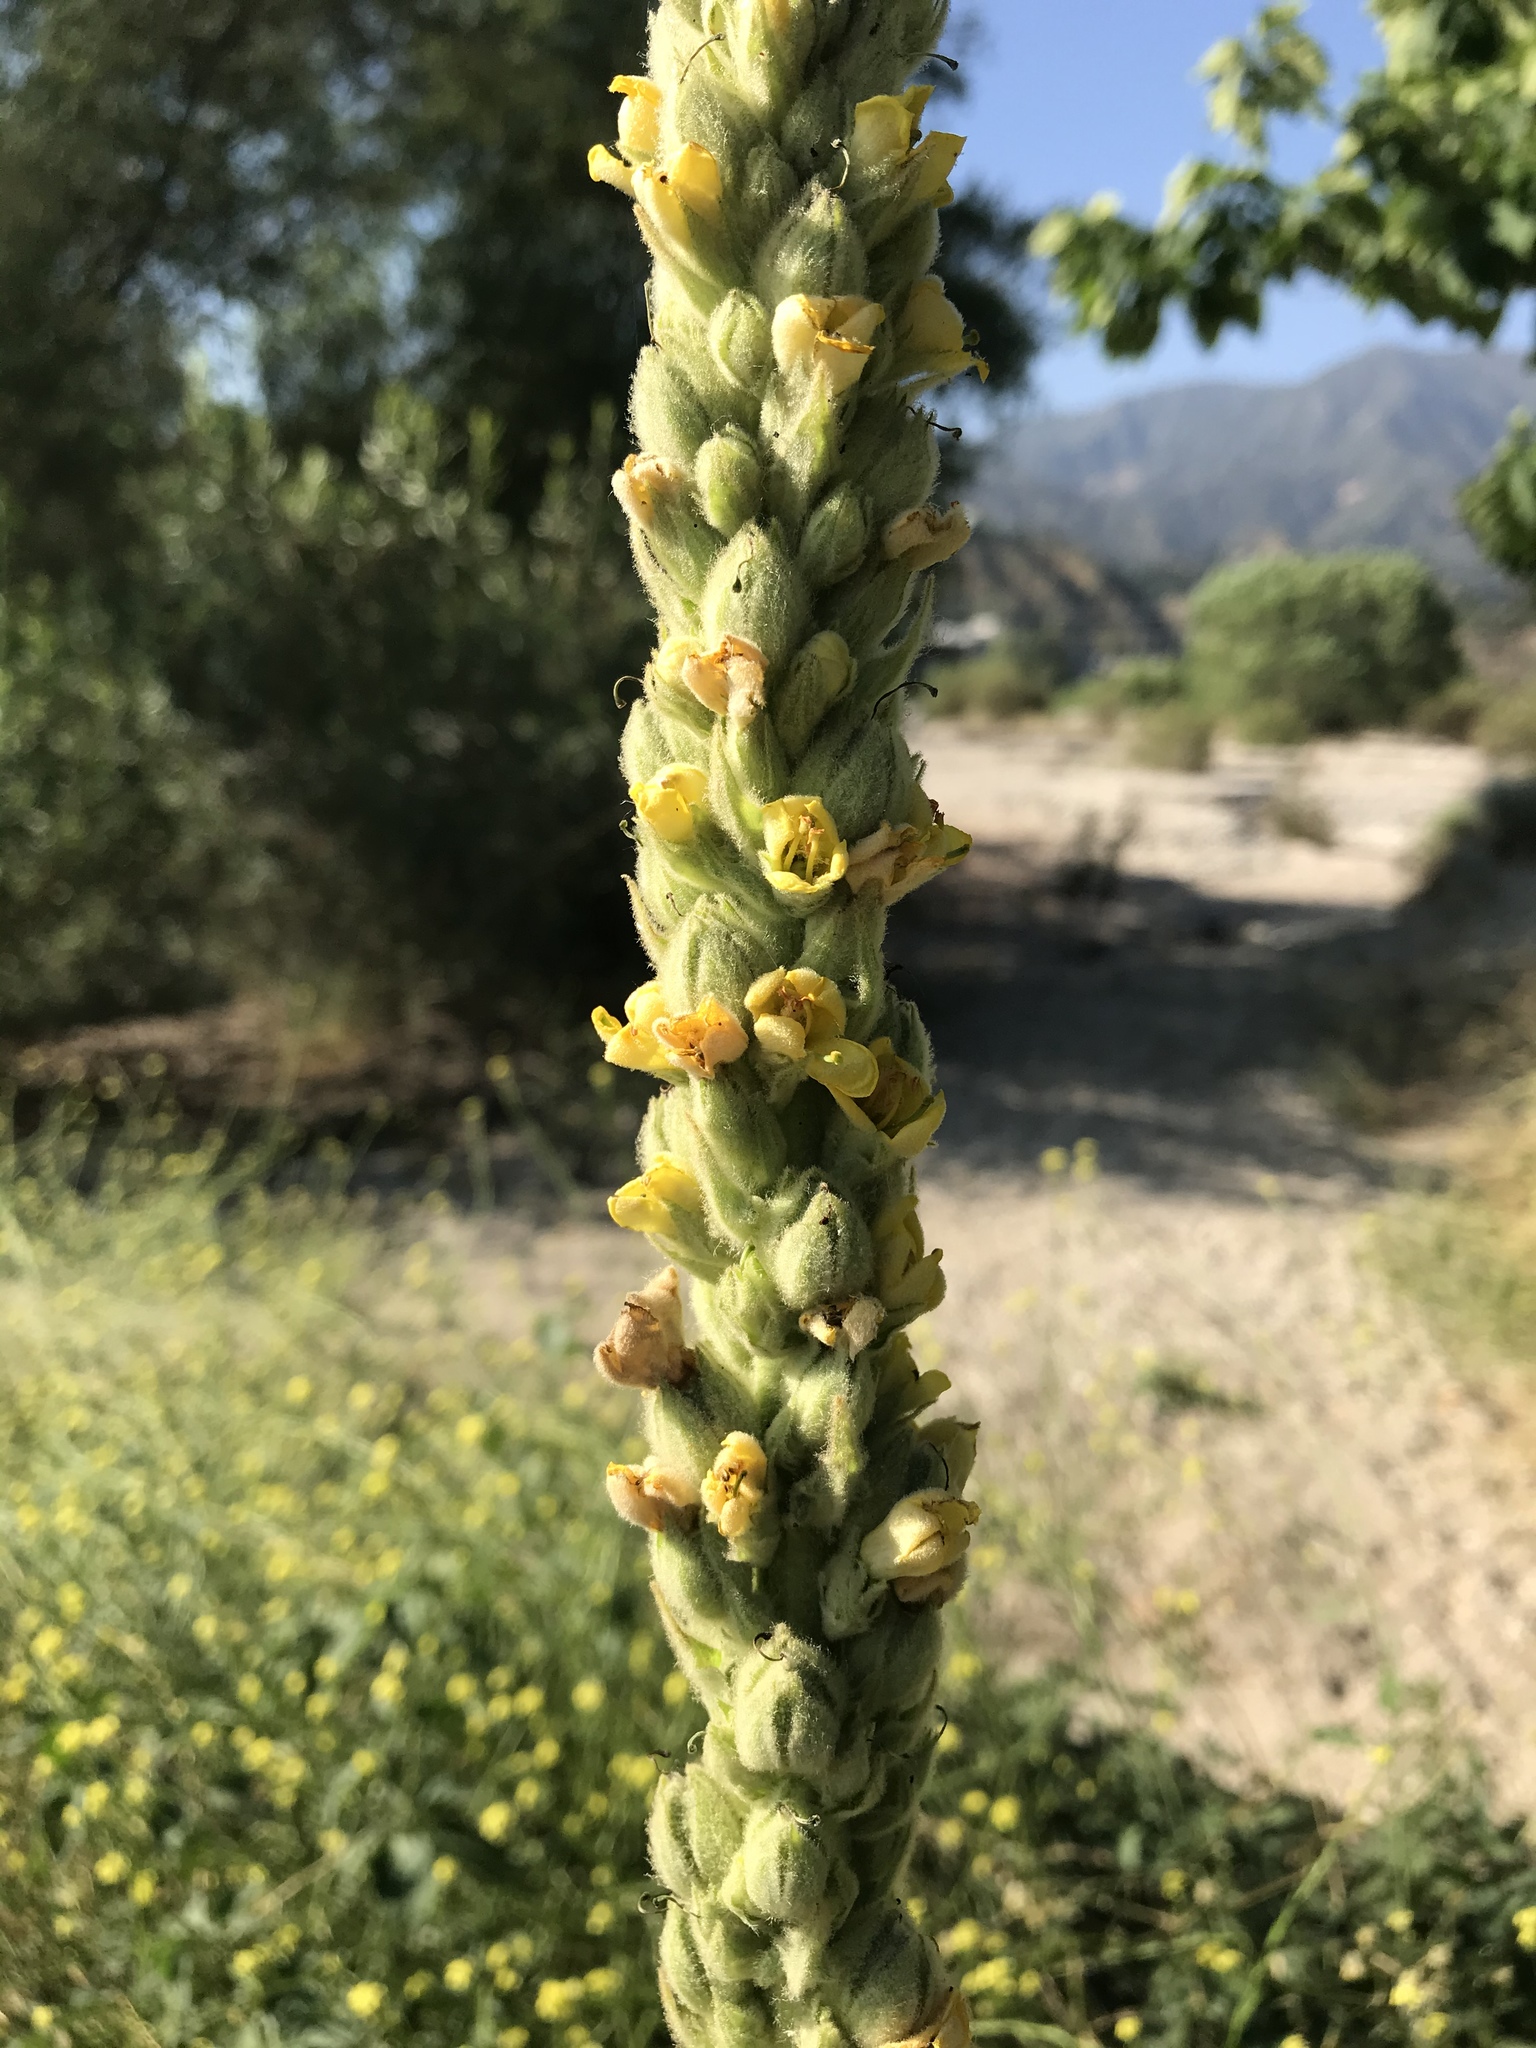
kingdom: Plantae
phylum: Tracheophyta
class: Magnoliopsida
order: Lamiales
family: Scrophulariaceae
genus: Verbascum
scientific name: Verbascum thapsus
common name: Common mullein
